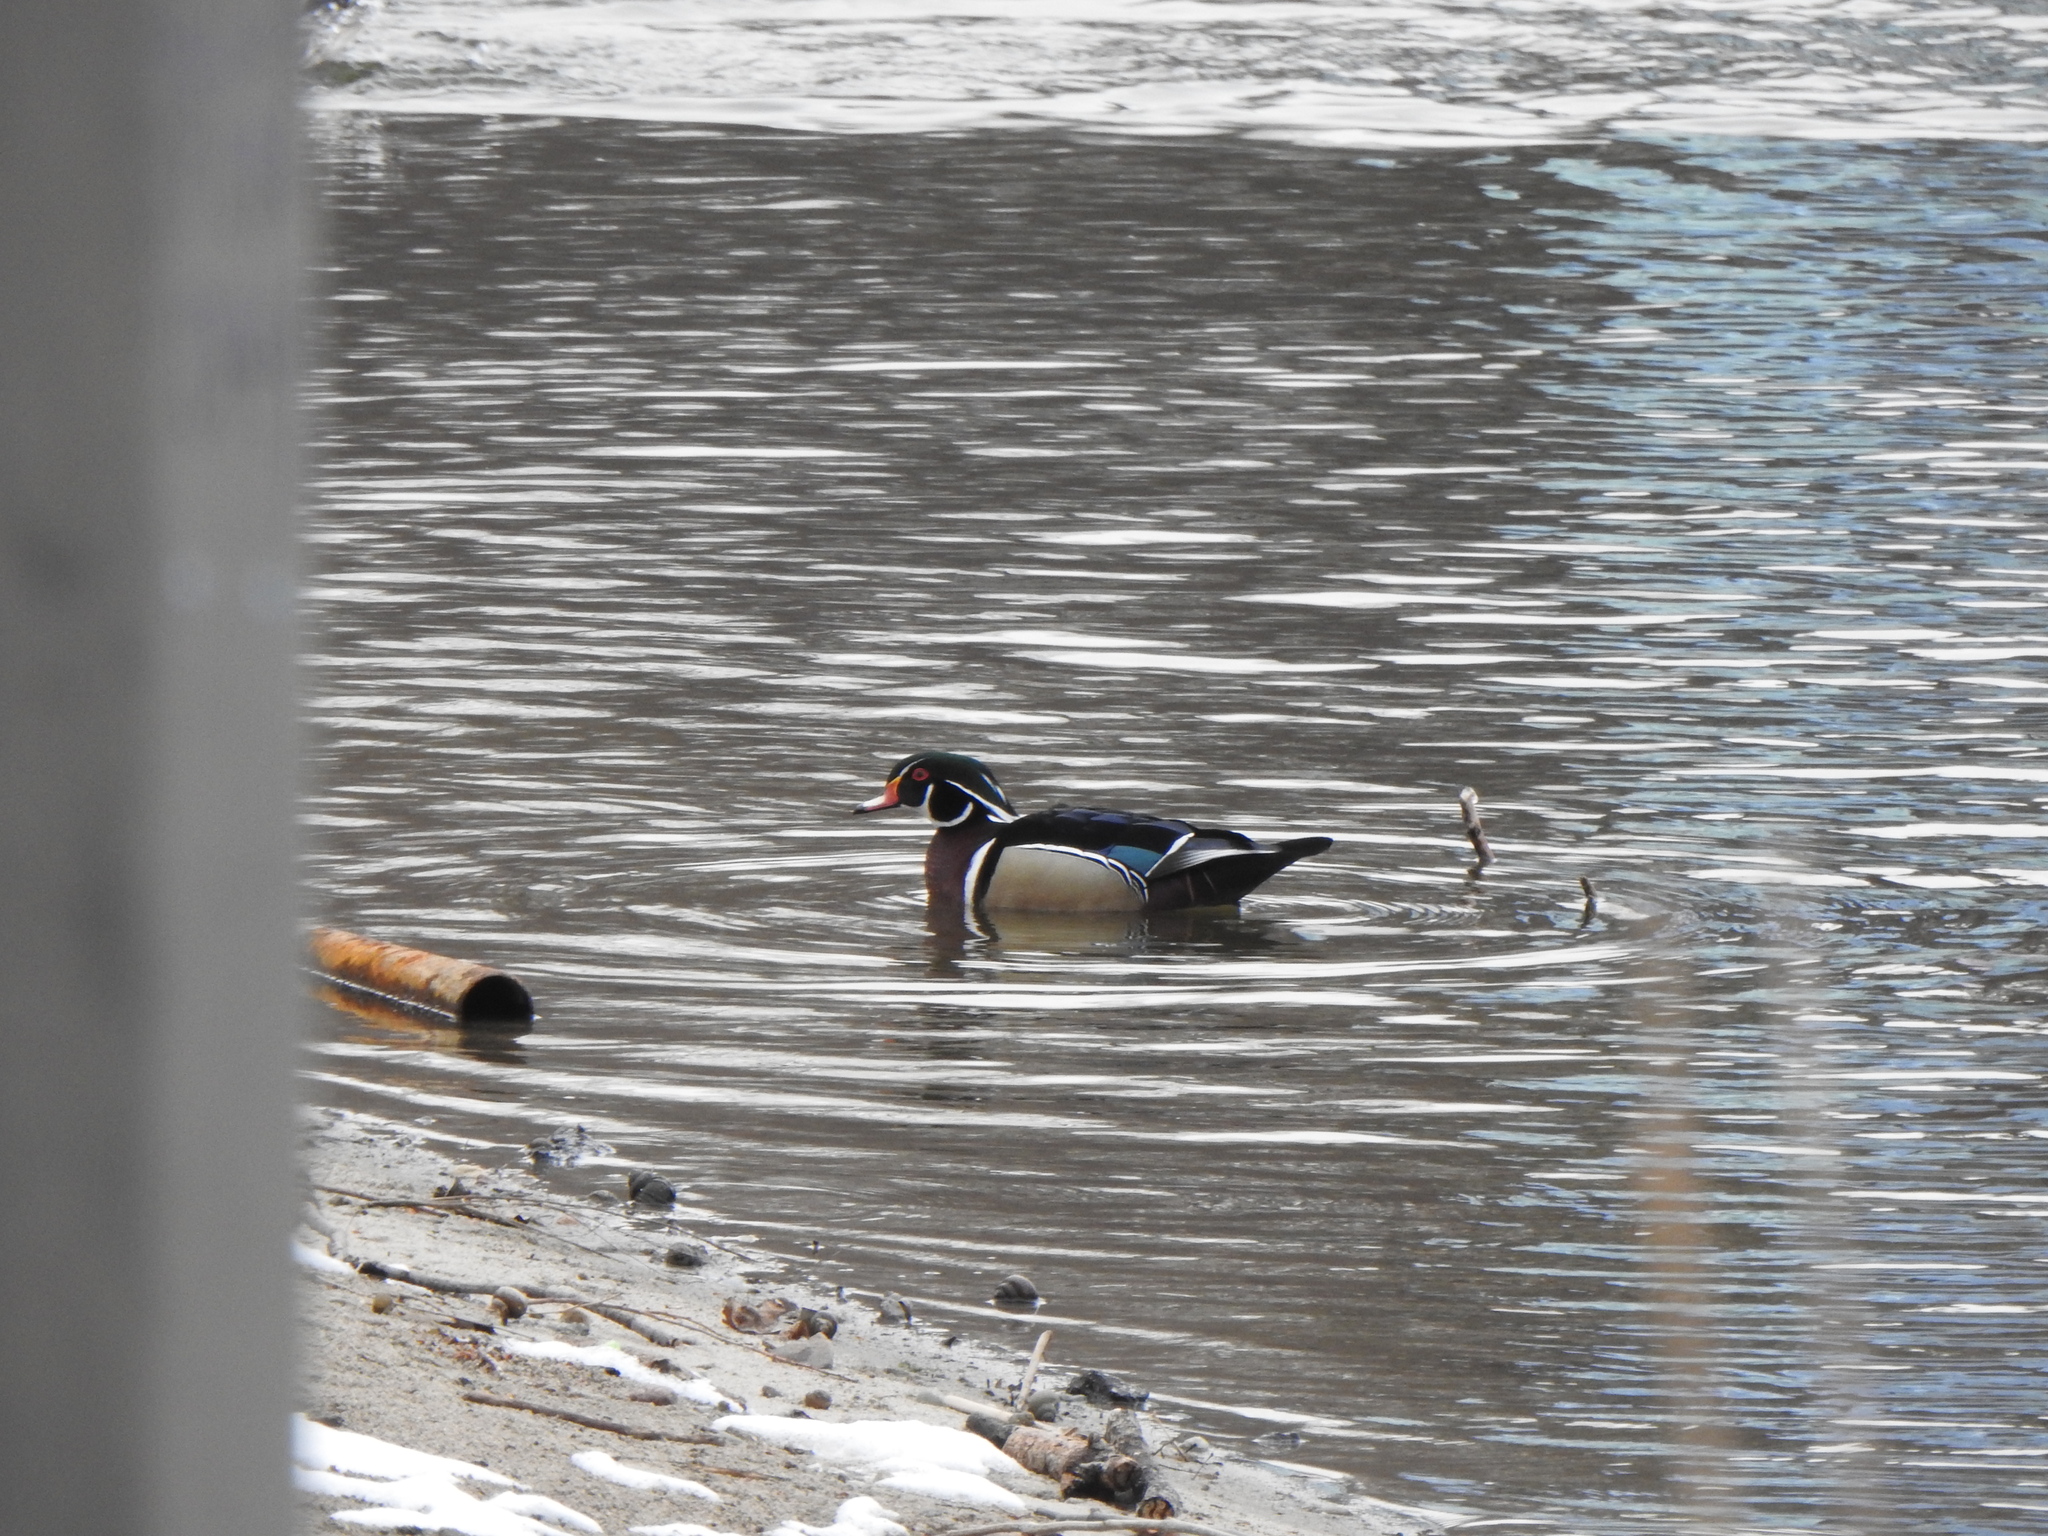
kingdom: Animalia
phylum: Chordata
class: Aves
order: Anseriformes
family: Anatidae
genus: Aix
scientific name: Aix sponsa
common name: Wood duck
